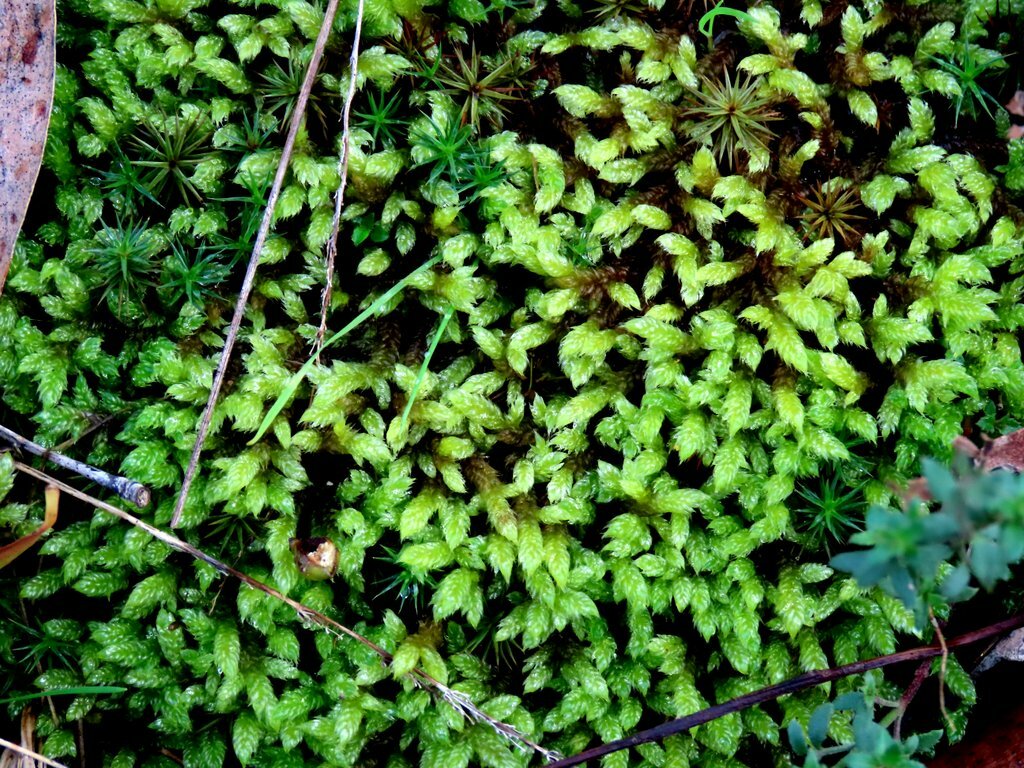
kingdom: Plantae
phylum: Bryophyta
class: Bryopsida
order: Hypnales
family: Hypnaceae
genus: Hypnum
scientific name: Hypnum cupressiforme
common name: Cypress-leaved plait-moss
